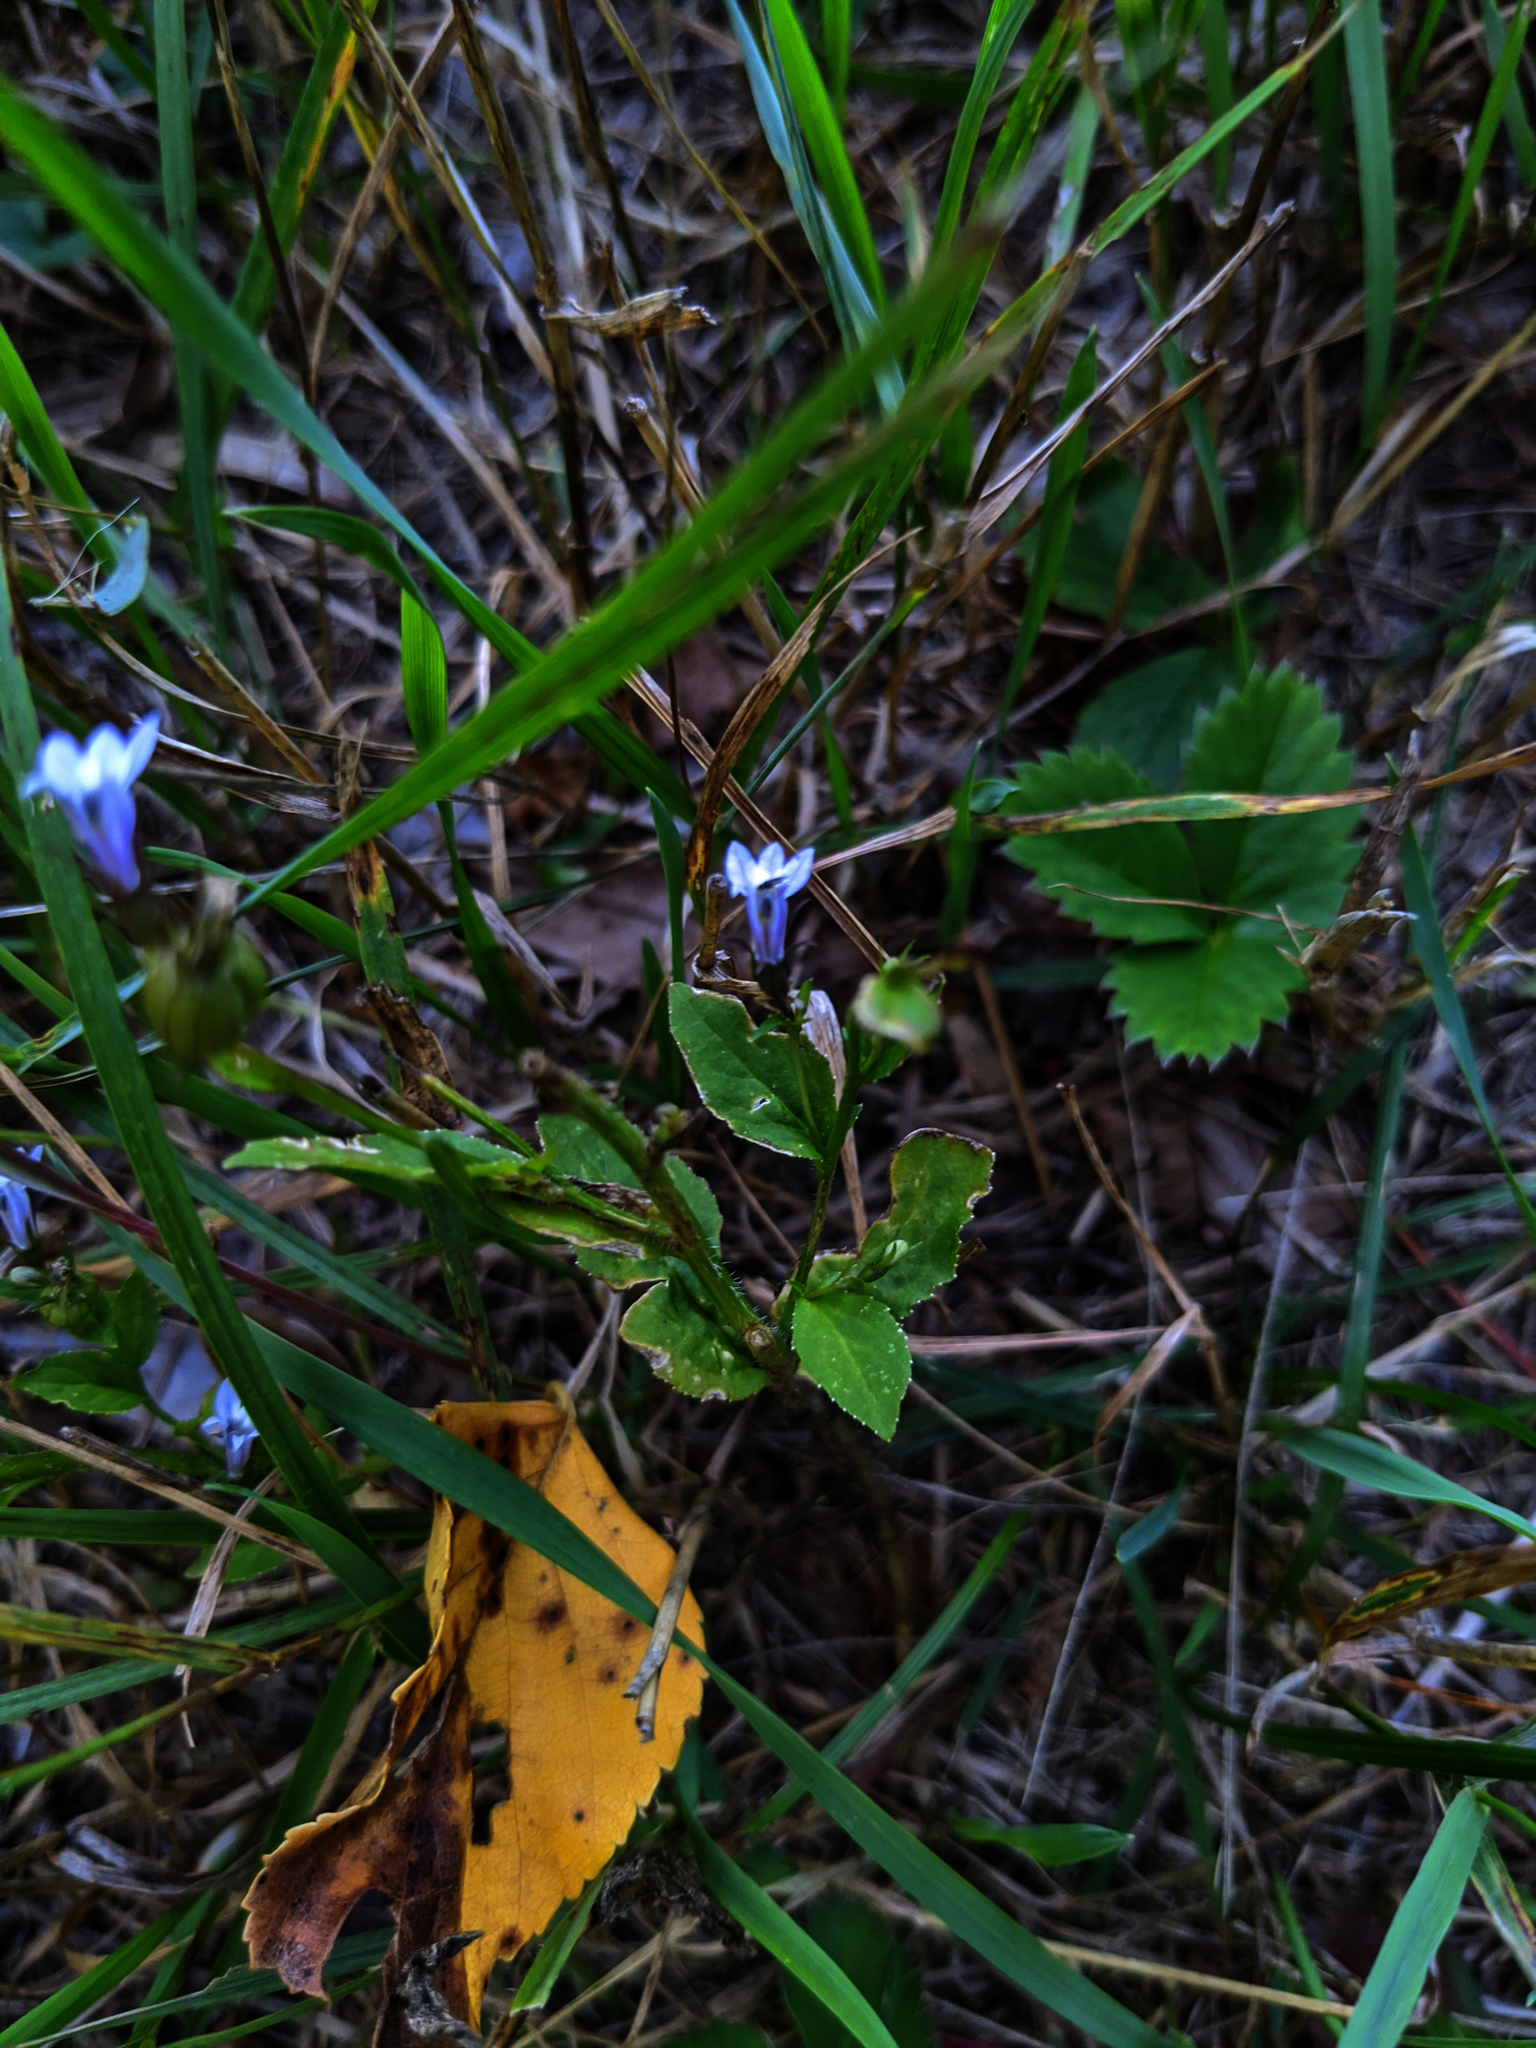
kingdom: Plantae
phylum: Tracheophyta
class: Magnoliopsida
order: Asterales
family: Campanulaceae
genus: Lobelia
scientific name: Lobelia inflata
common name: Indian tobacco
